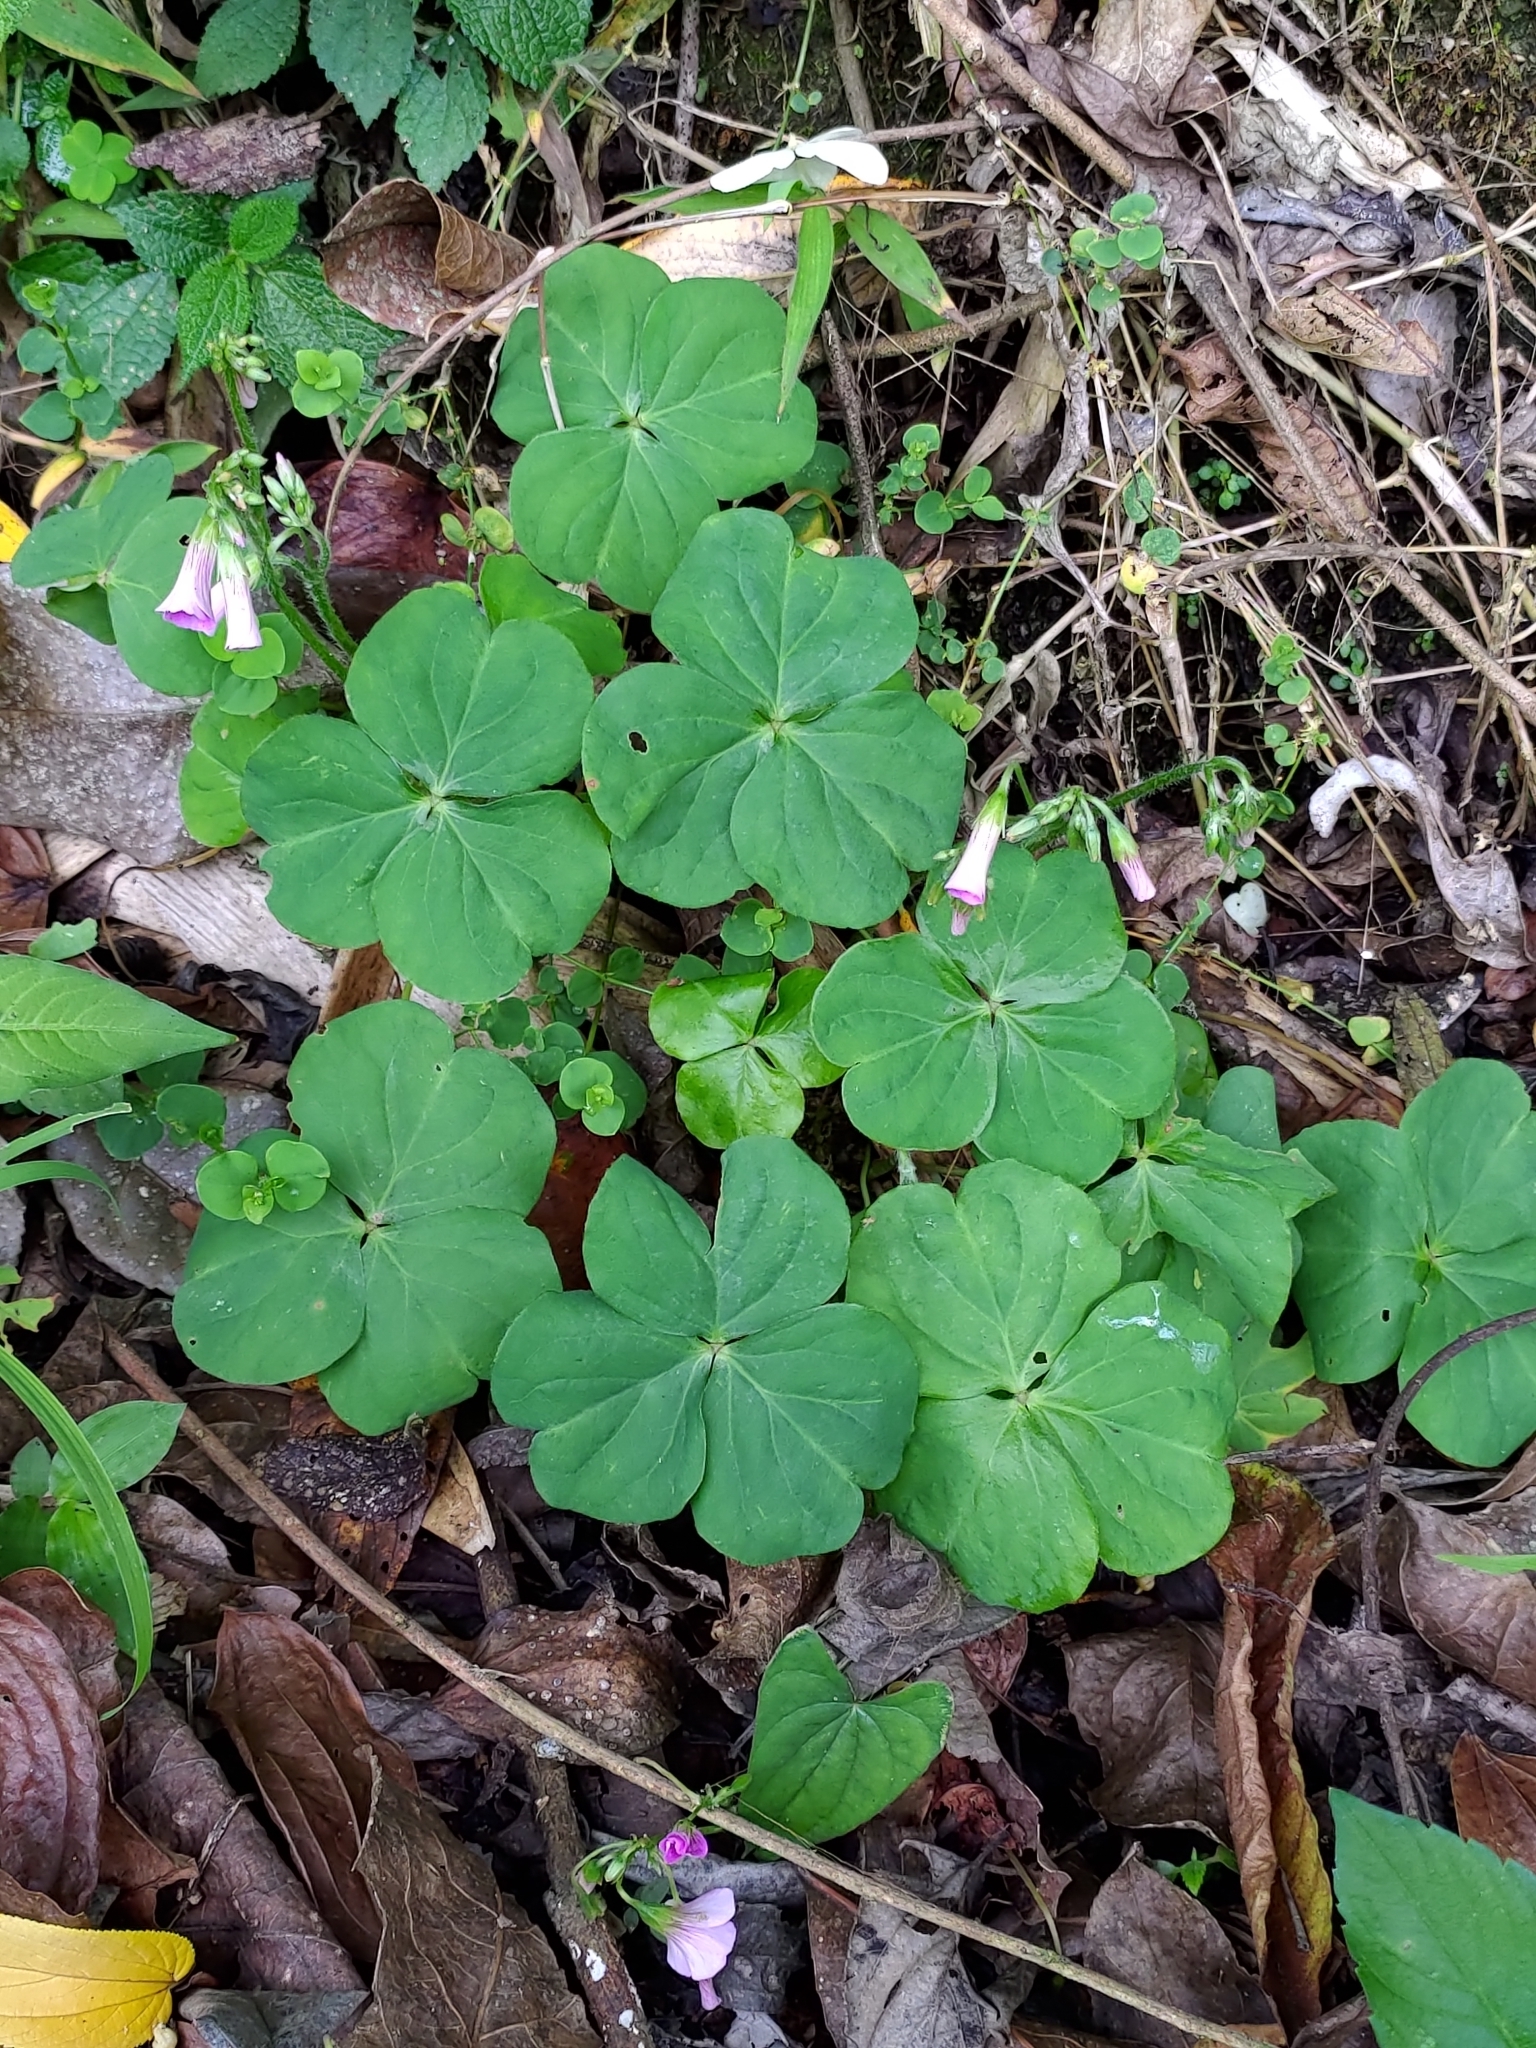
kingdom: Plantae
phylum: Tracheophyta
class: Magnoliopsida
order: Oxalidales
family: Oxalidaceae
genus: Oxalis
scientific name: Oxalis debilis
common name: Large-flowered pink-sorrel
